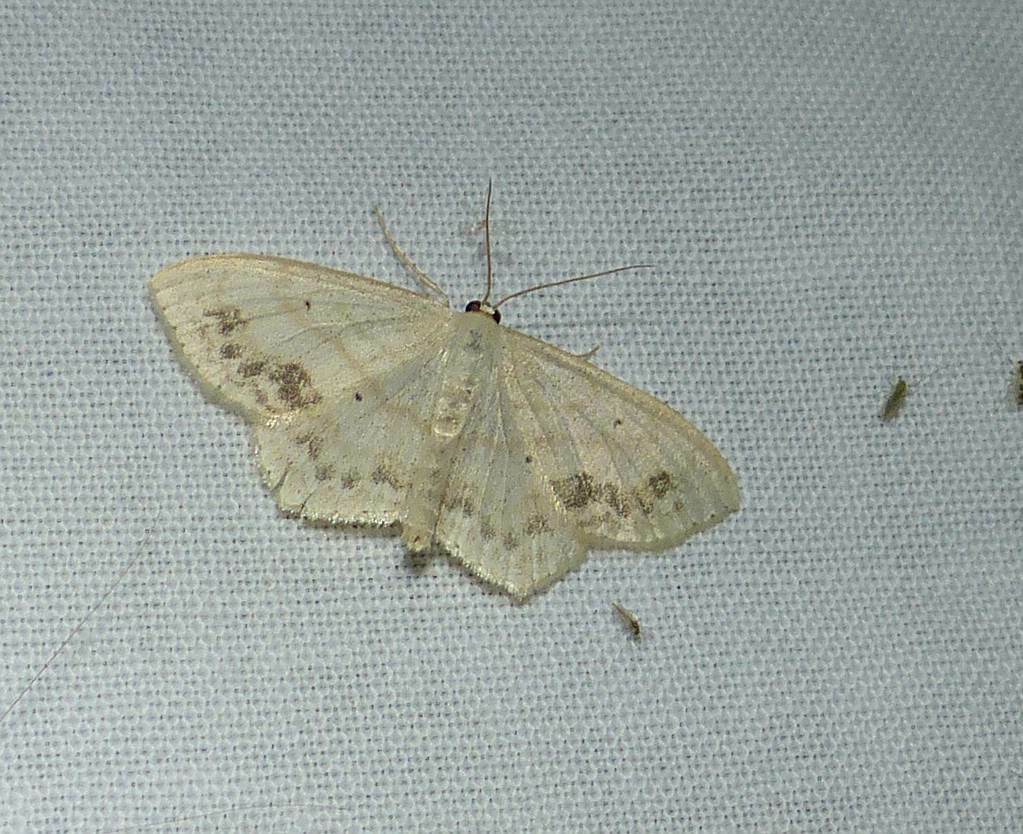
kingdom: Animalia
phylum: Arthropoda
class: Insecta
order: Lepidoptera
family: Geometridae
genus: Scopula
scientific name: Scopula limboundata
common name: Large lace border
